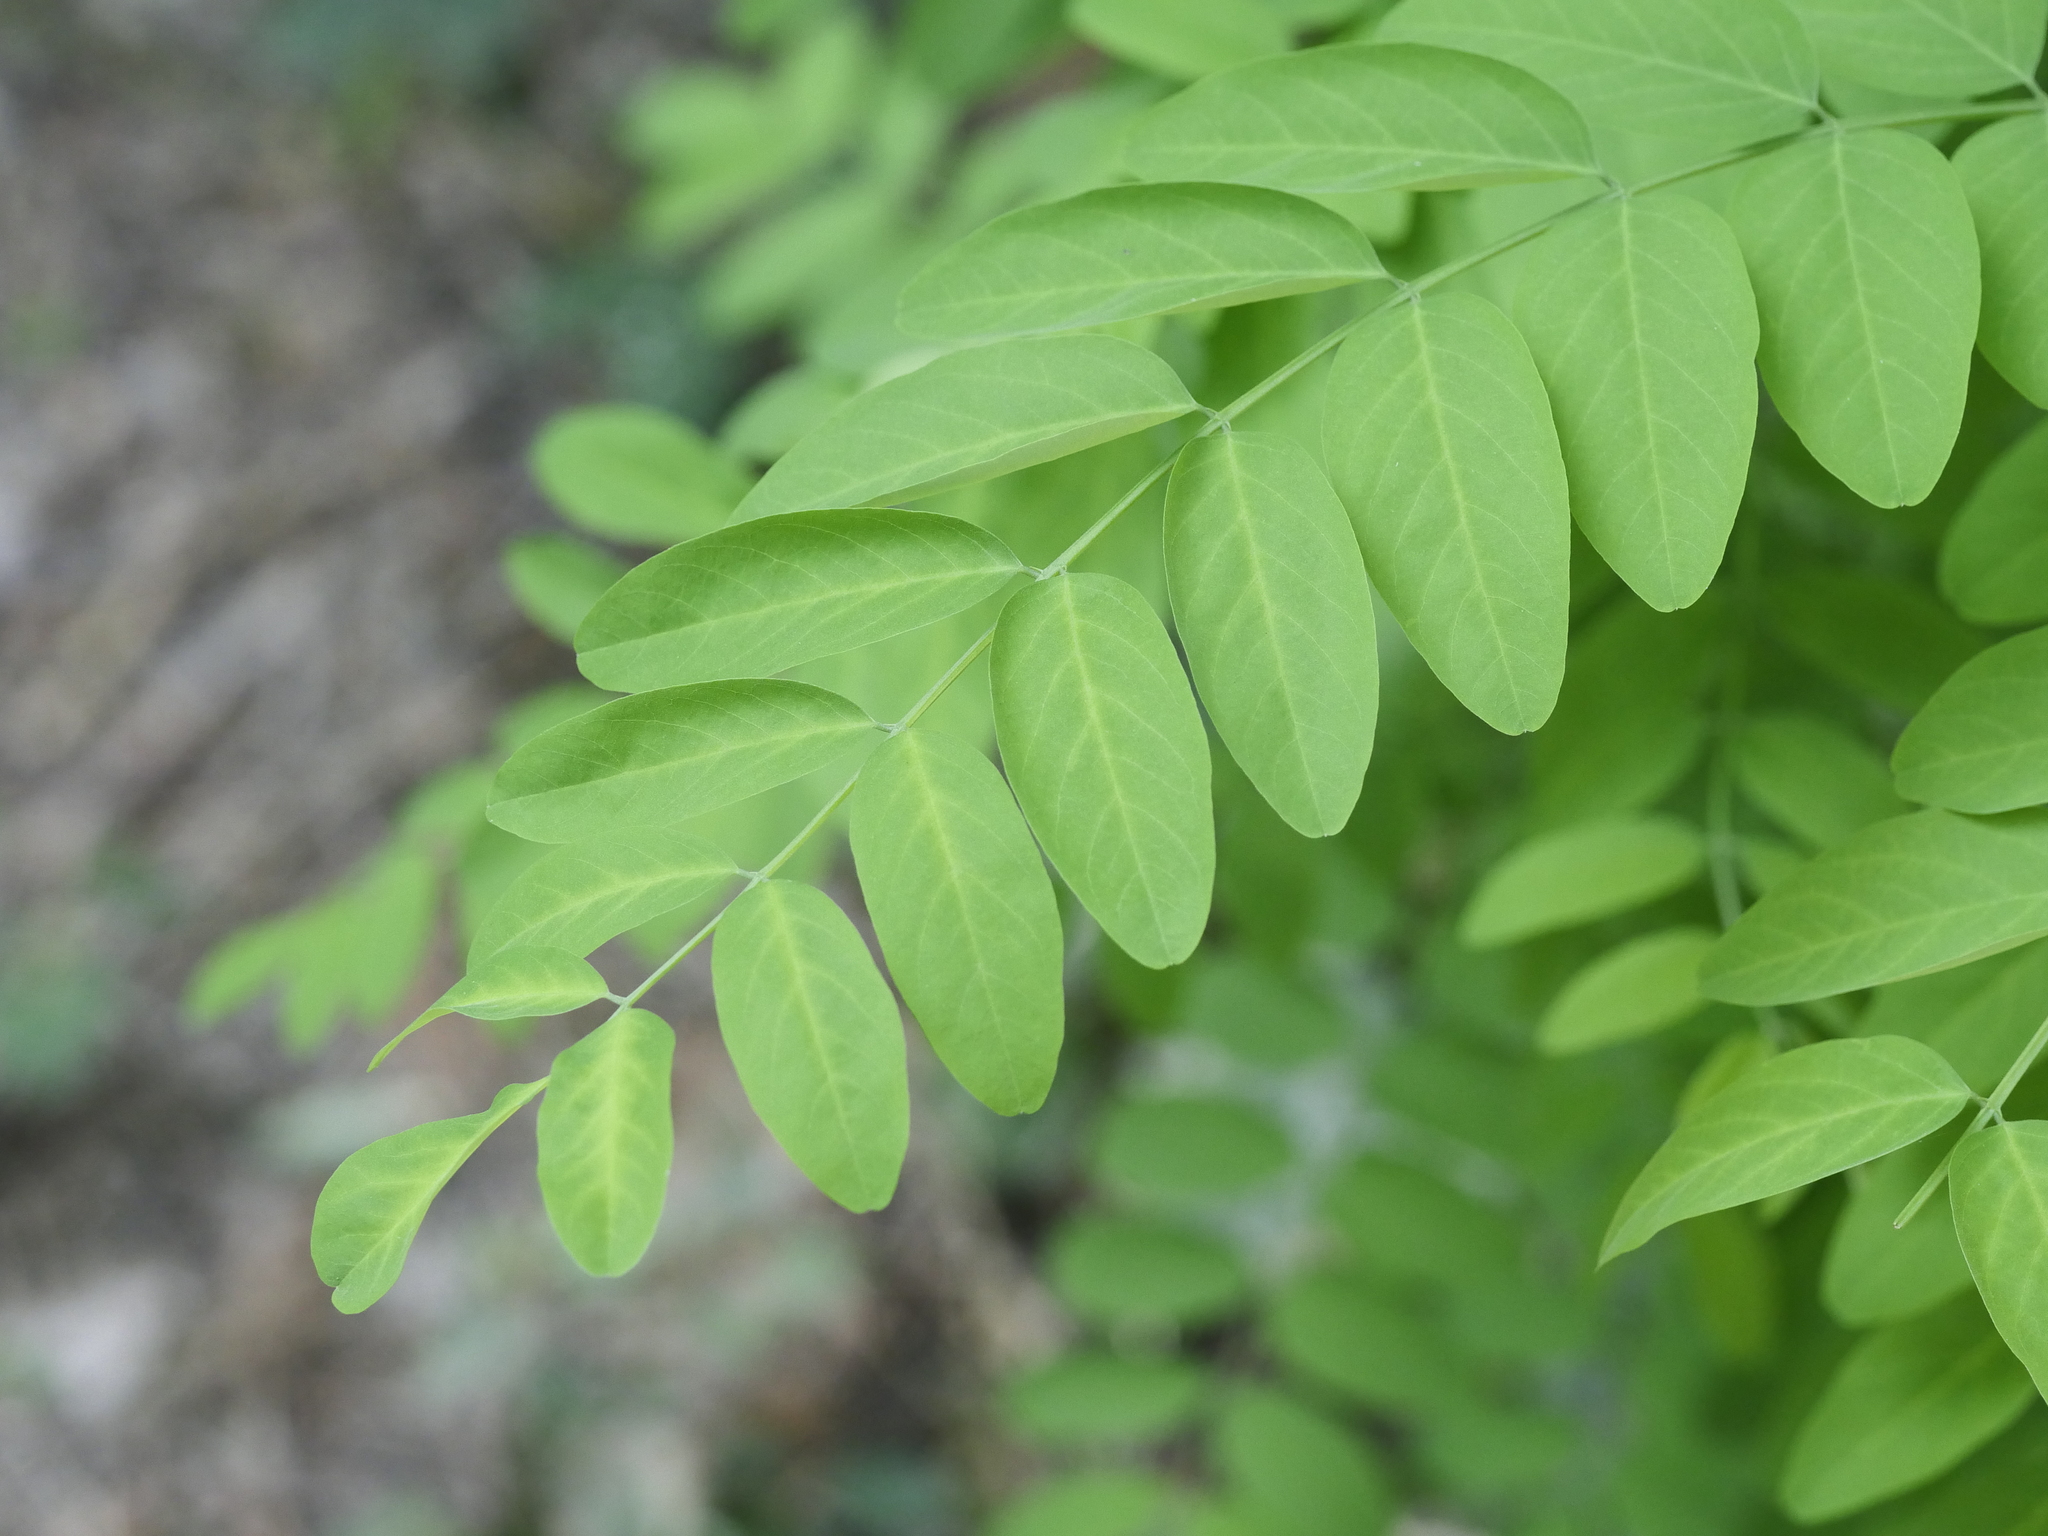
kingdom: Plantae
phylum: Tracheophyta
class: Magnoliopsida
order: Fabales
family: Fabaceae
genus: Robinia
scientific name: Robinia pseudoacacia
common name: Black locust
